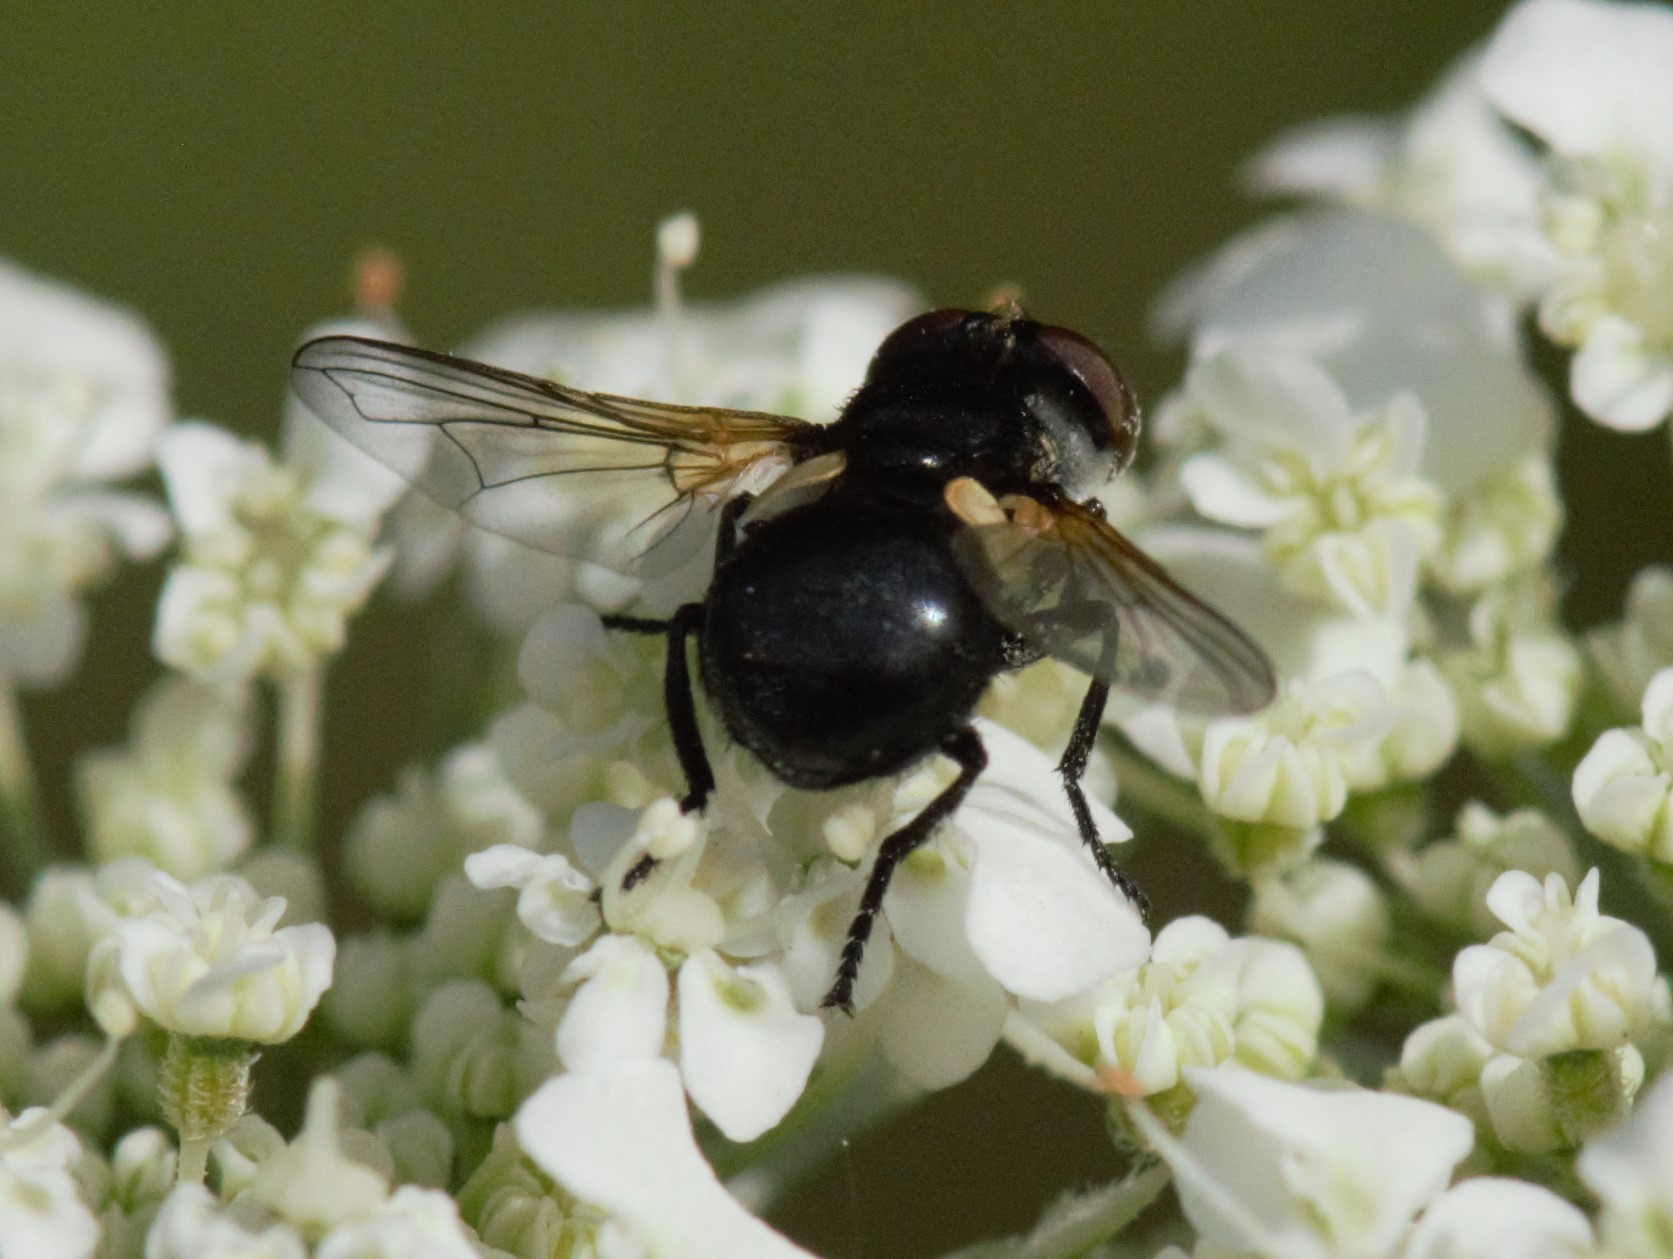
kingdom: Animalia
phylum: Arthropoda
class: Insecta
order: Diptera
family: Tachinidae
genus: Cistogaster
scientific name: Cistogaster globosa
